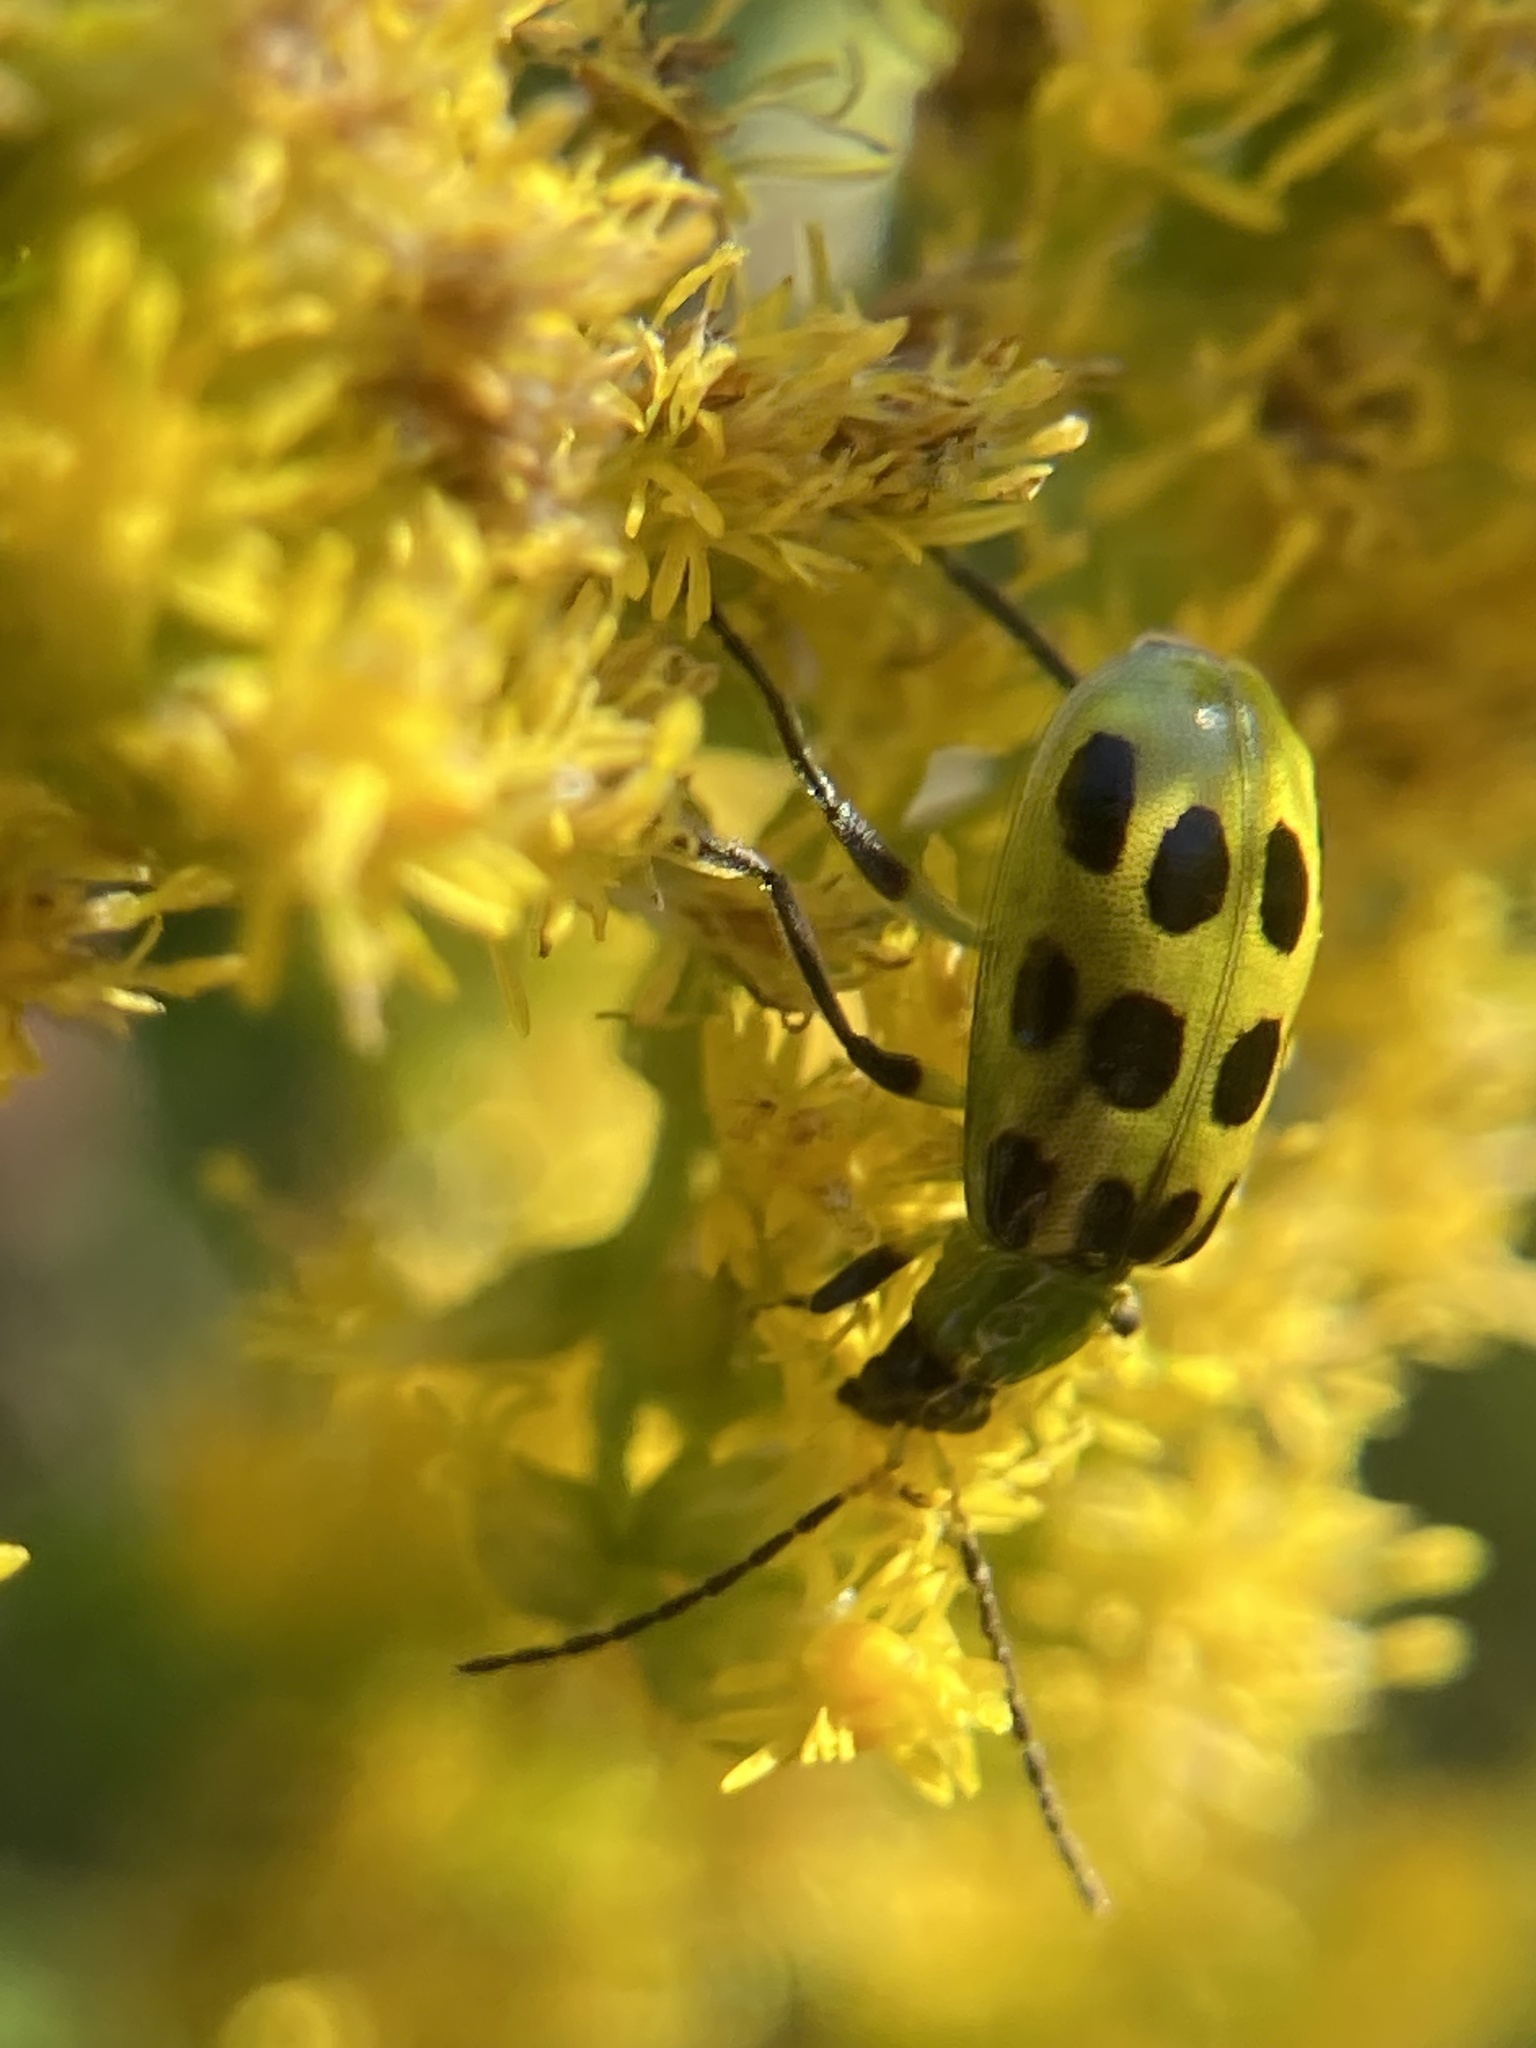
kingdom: Animalia
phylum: Arthropoda
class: Insecta
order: Coleoptera
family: Chrysomelidae
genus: Diabrotica
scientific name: Diabrotica undecimpunctata
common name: Spotted cucumber beetle
